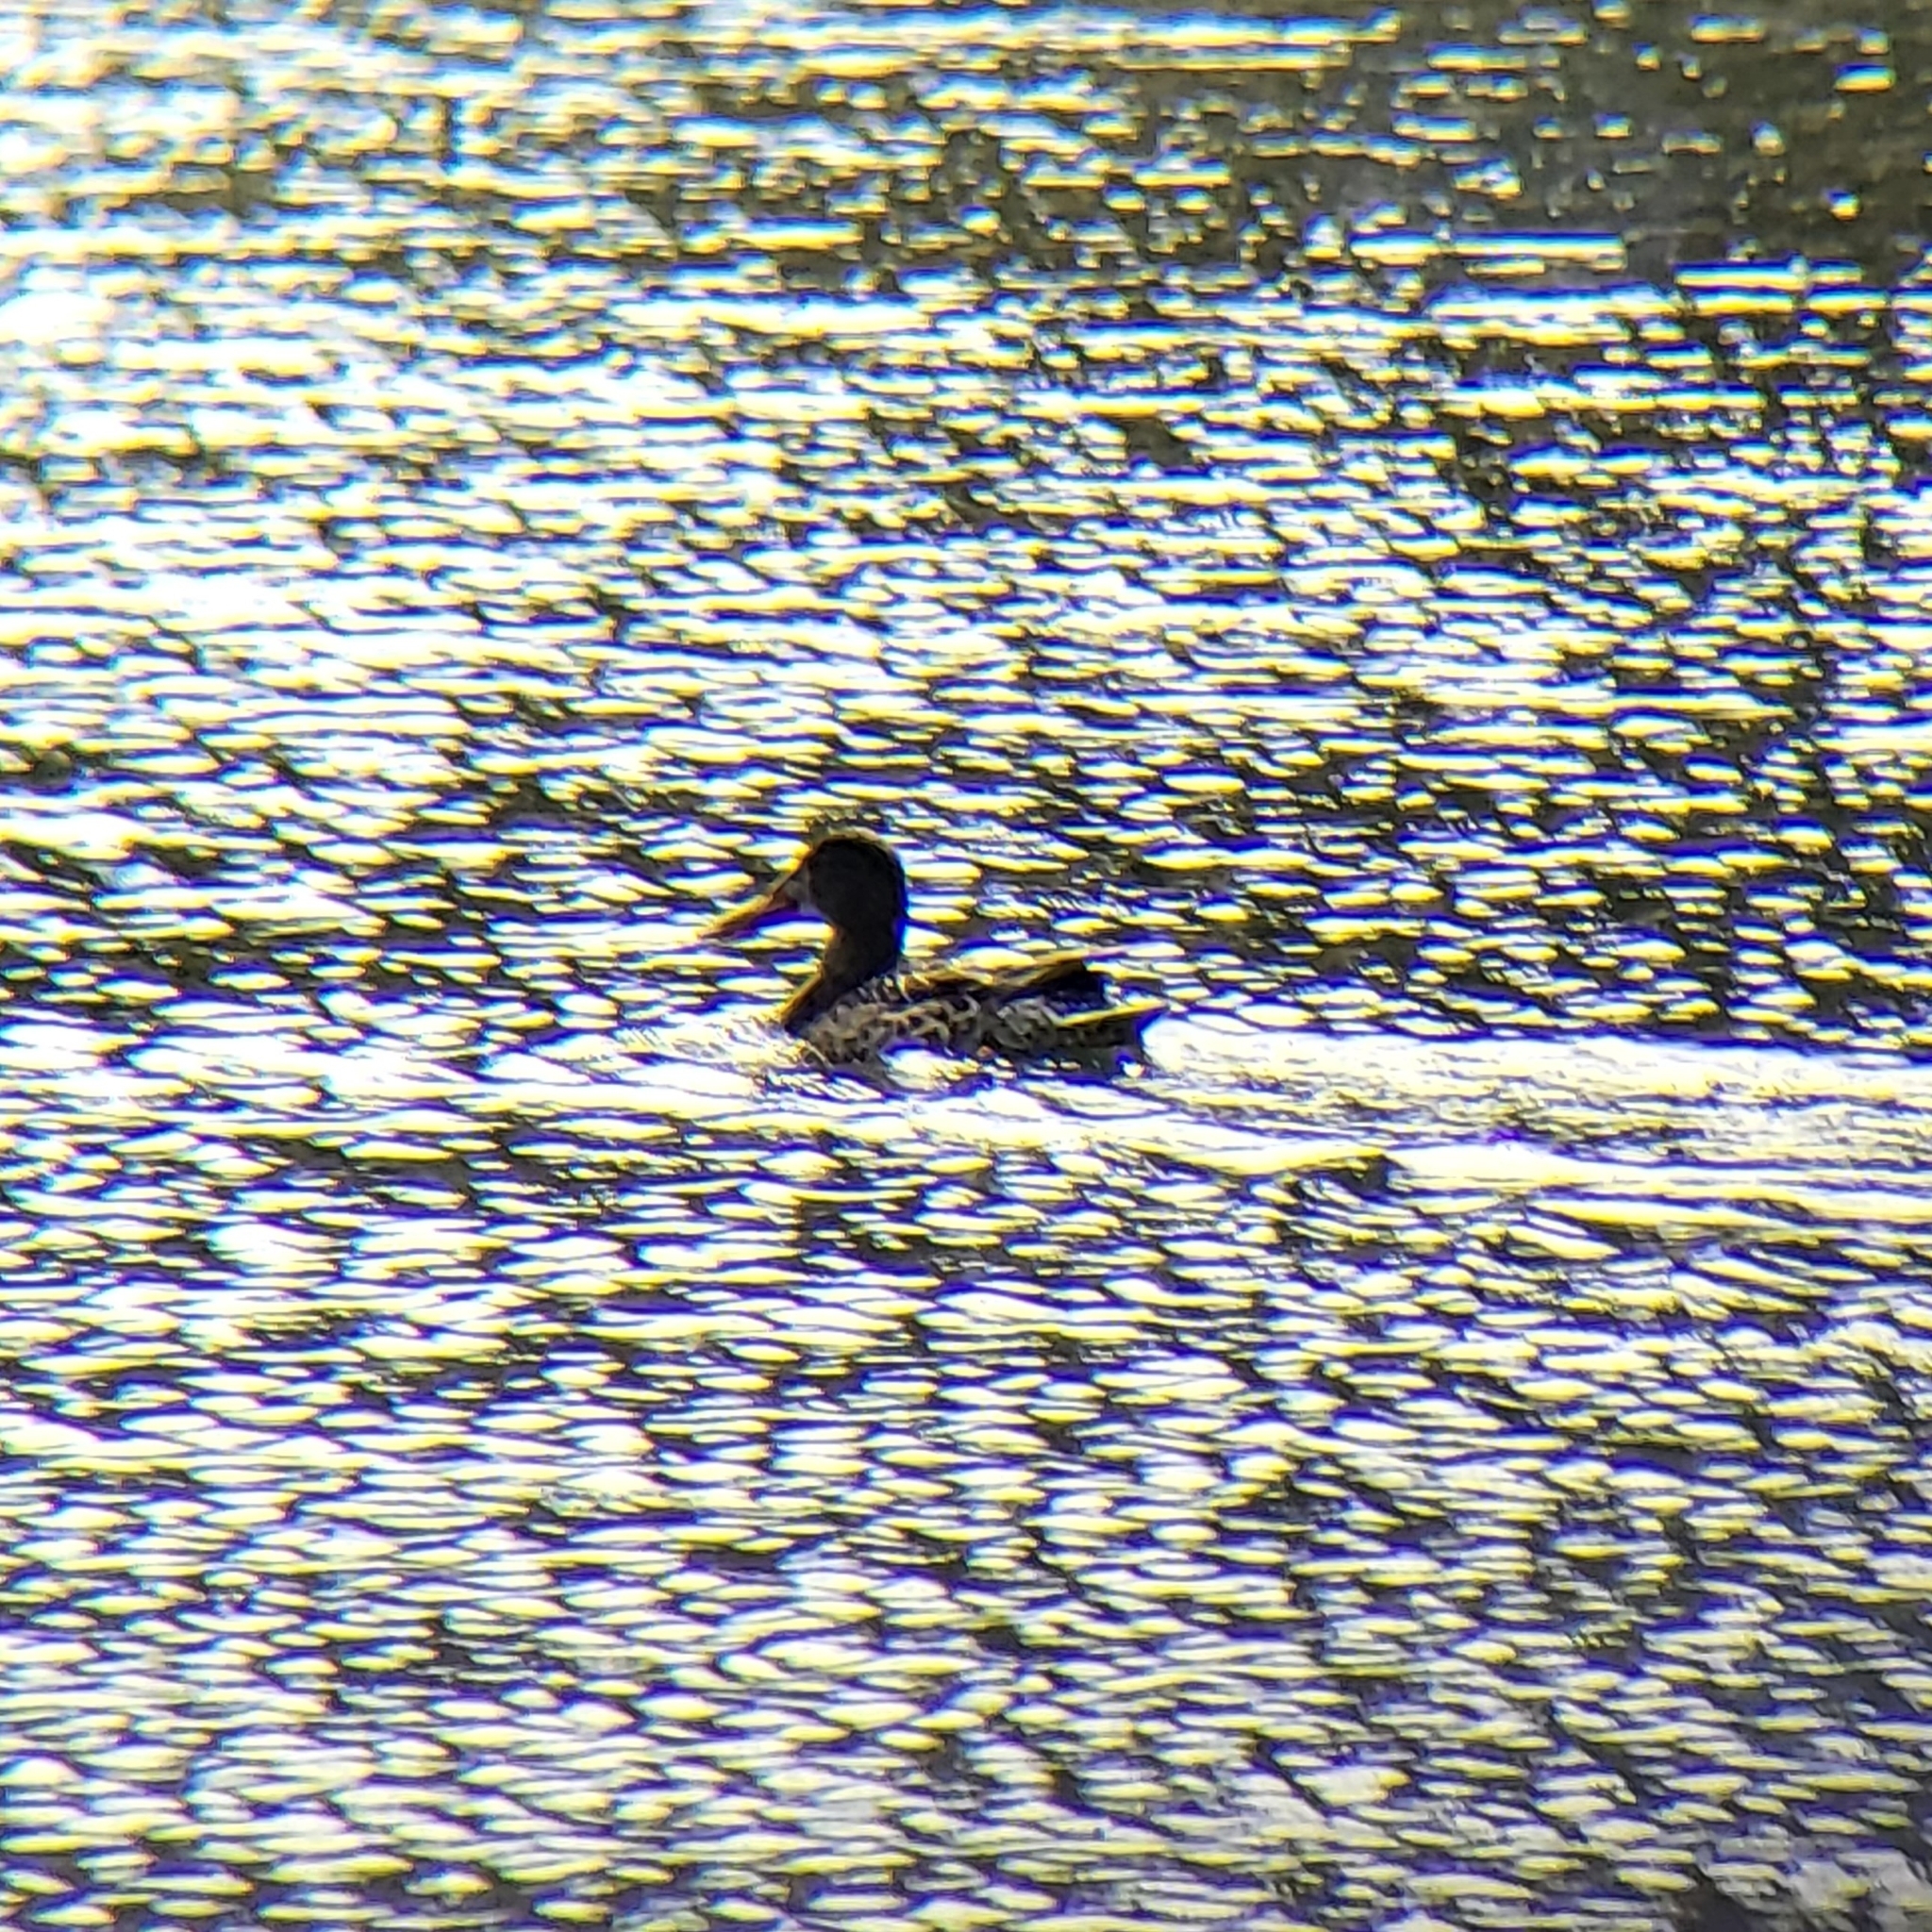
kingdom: Animalia
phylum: Chordata
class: Aves
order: Anseriformes
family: Anatidae
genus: Spatula
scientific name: Spatula clypeata
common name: Northern shoveler
